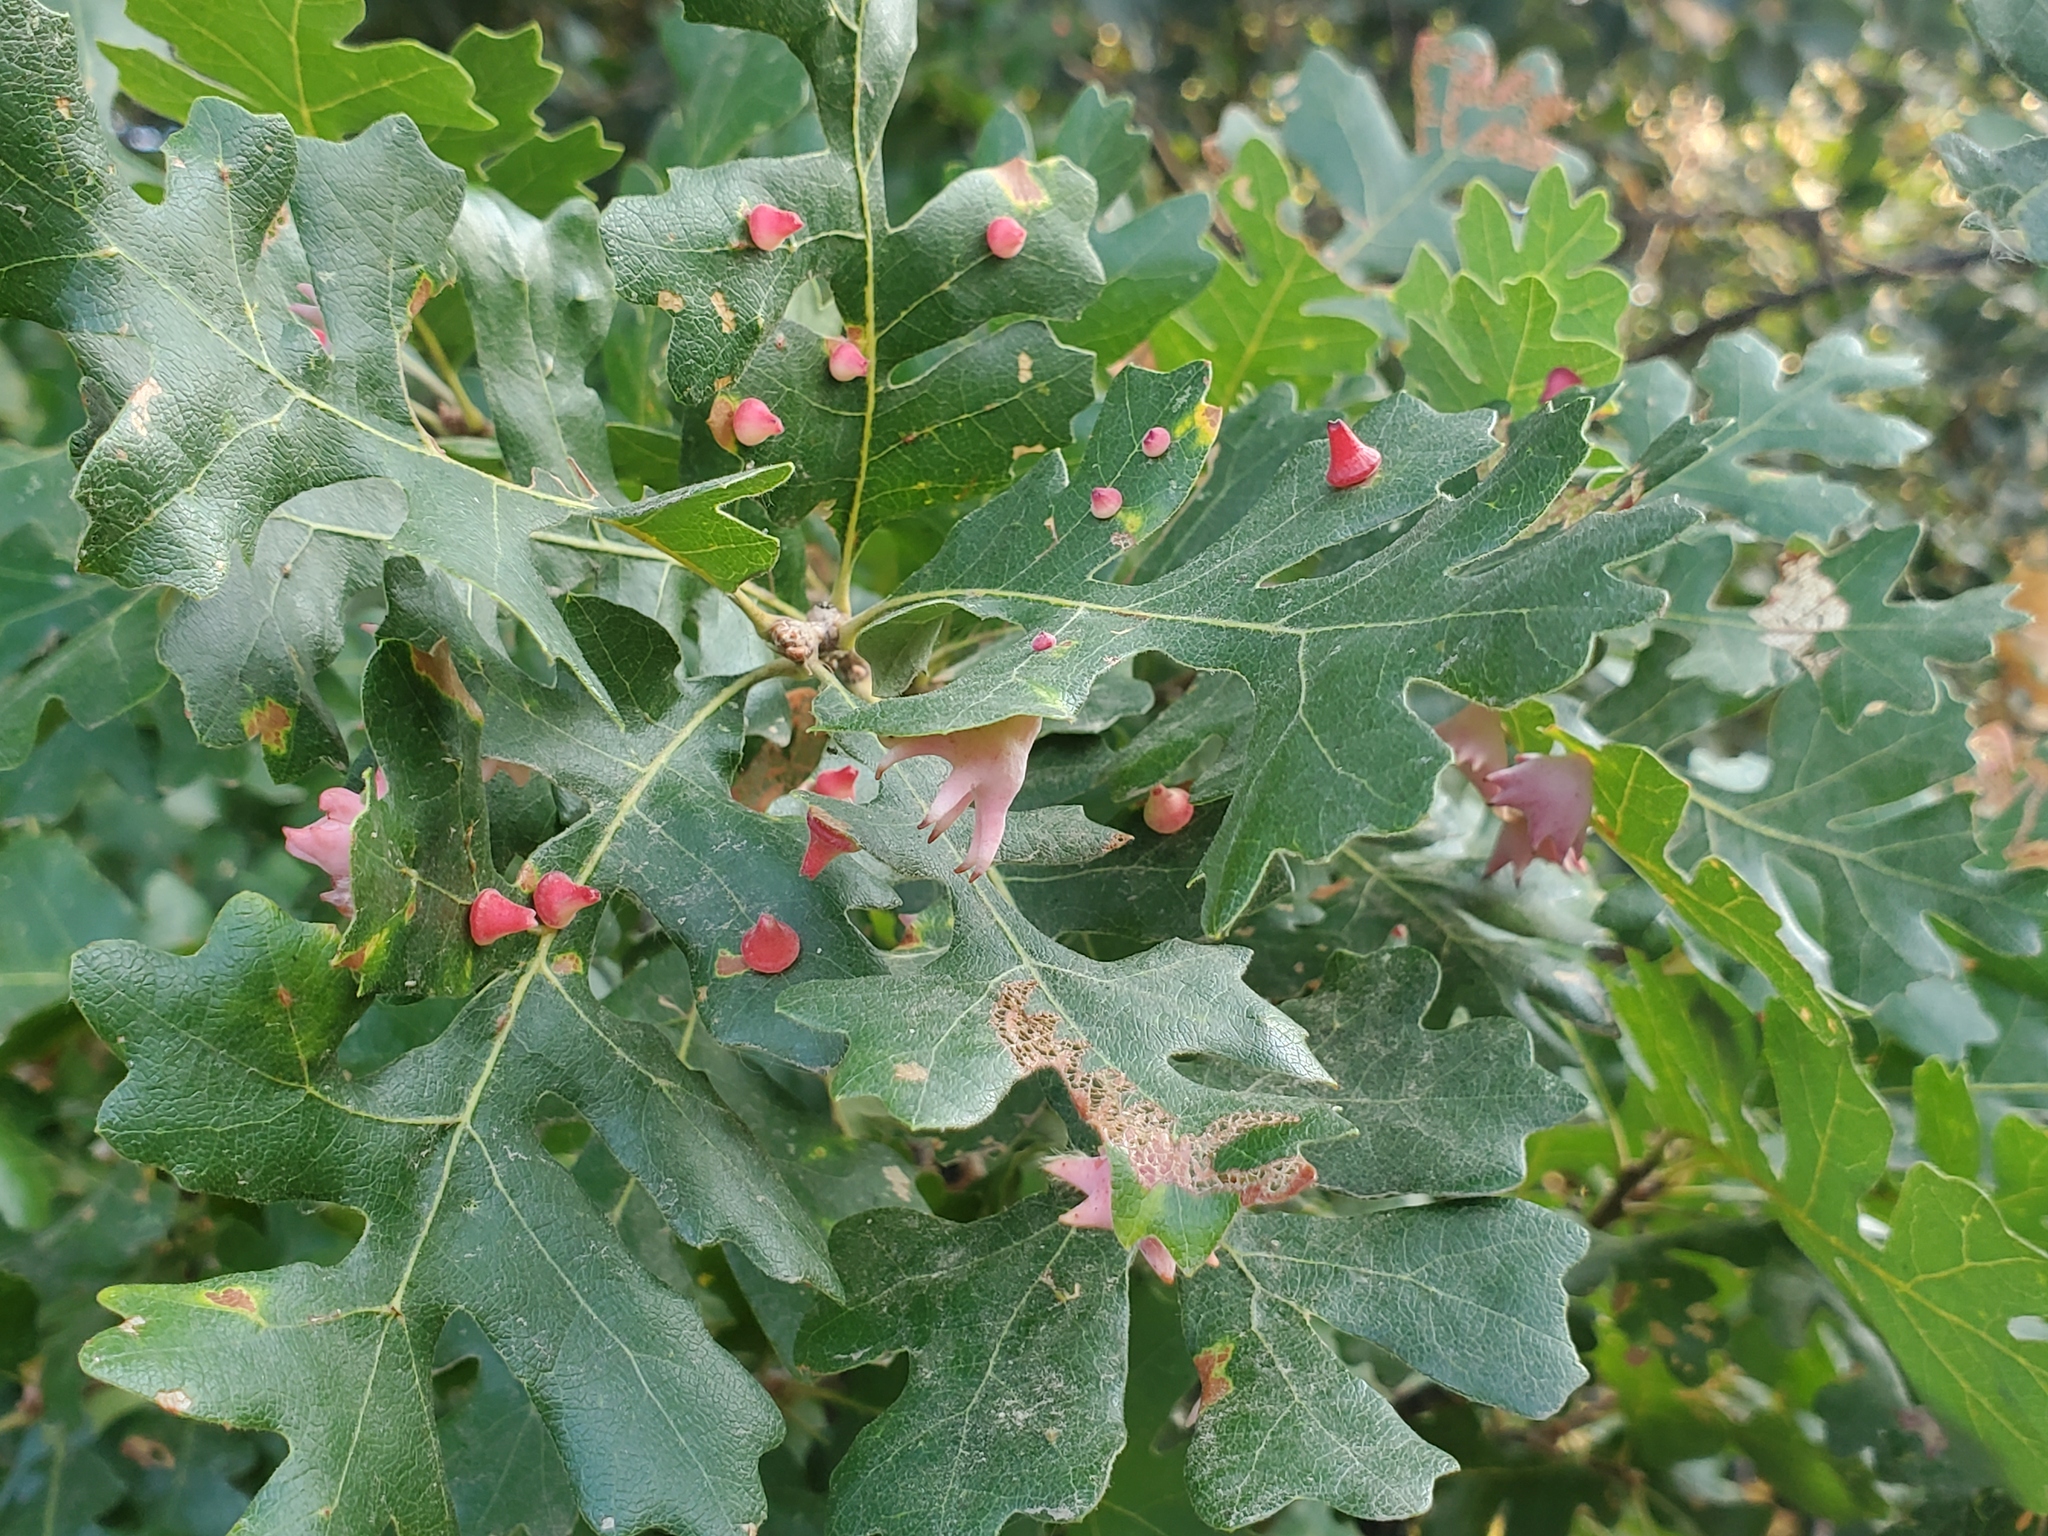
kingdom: Animalia
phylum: Arthropoda
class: Insecta
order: Hymenoptera
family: Cynipidae
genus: Andricus
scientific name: Andricus
